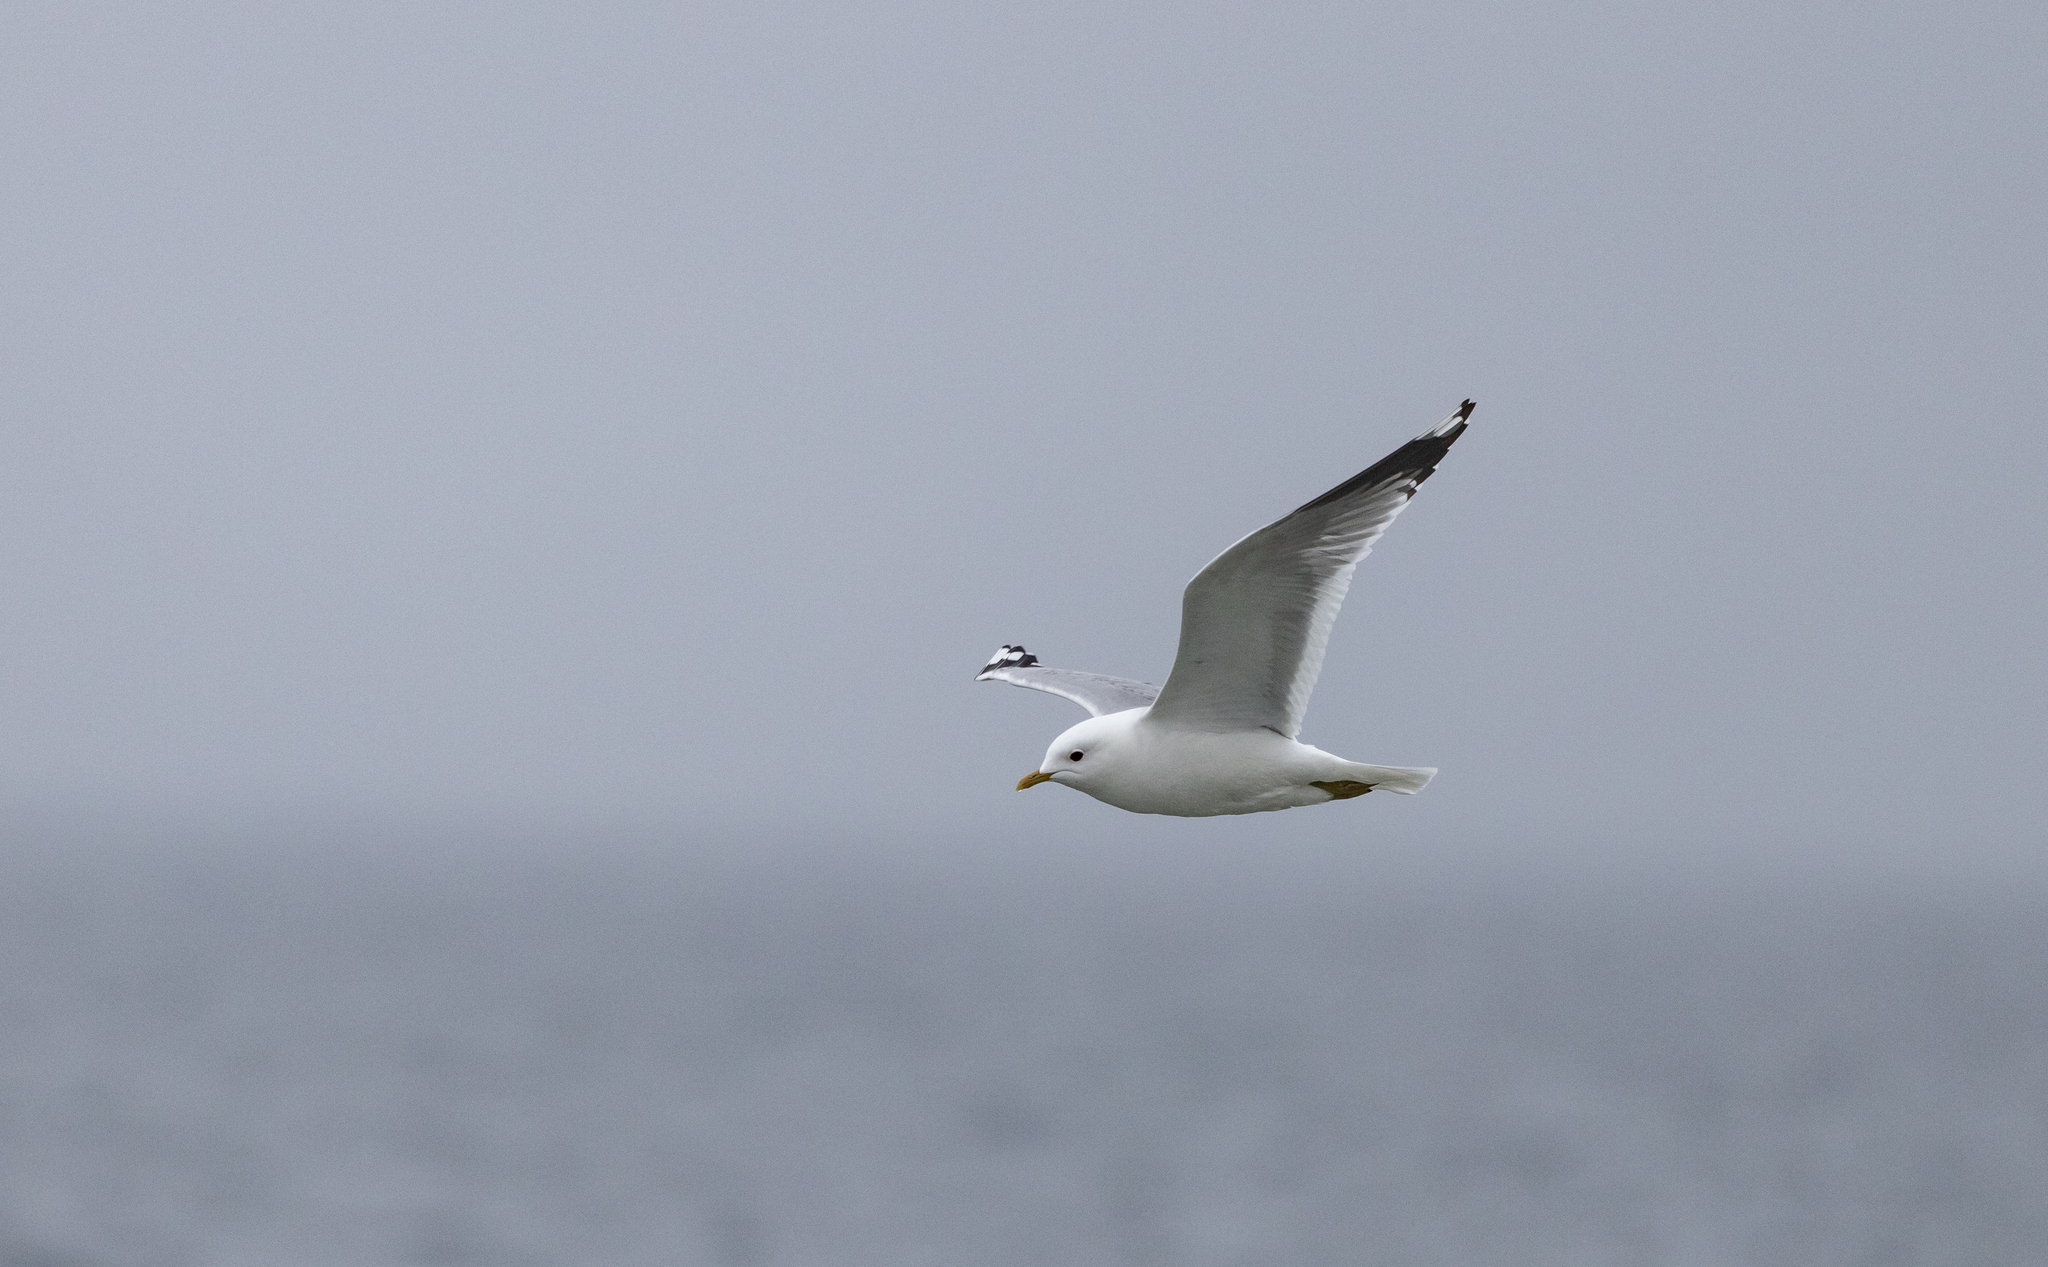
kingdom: Animalia
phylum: Chordata
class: Aves
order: Charadriiformes
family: Laridae
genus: Larus
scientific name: Larus canus
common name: Mew gull
